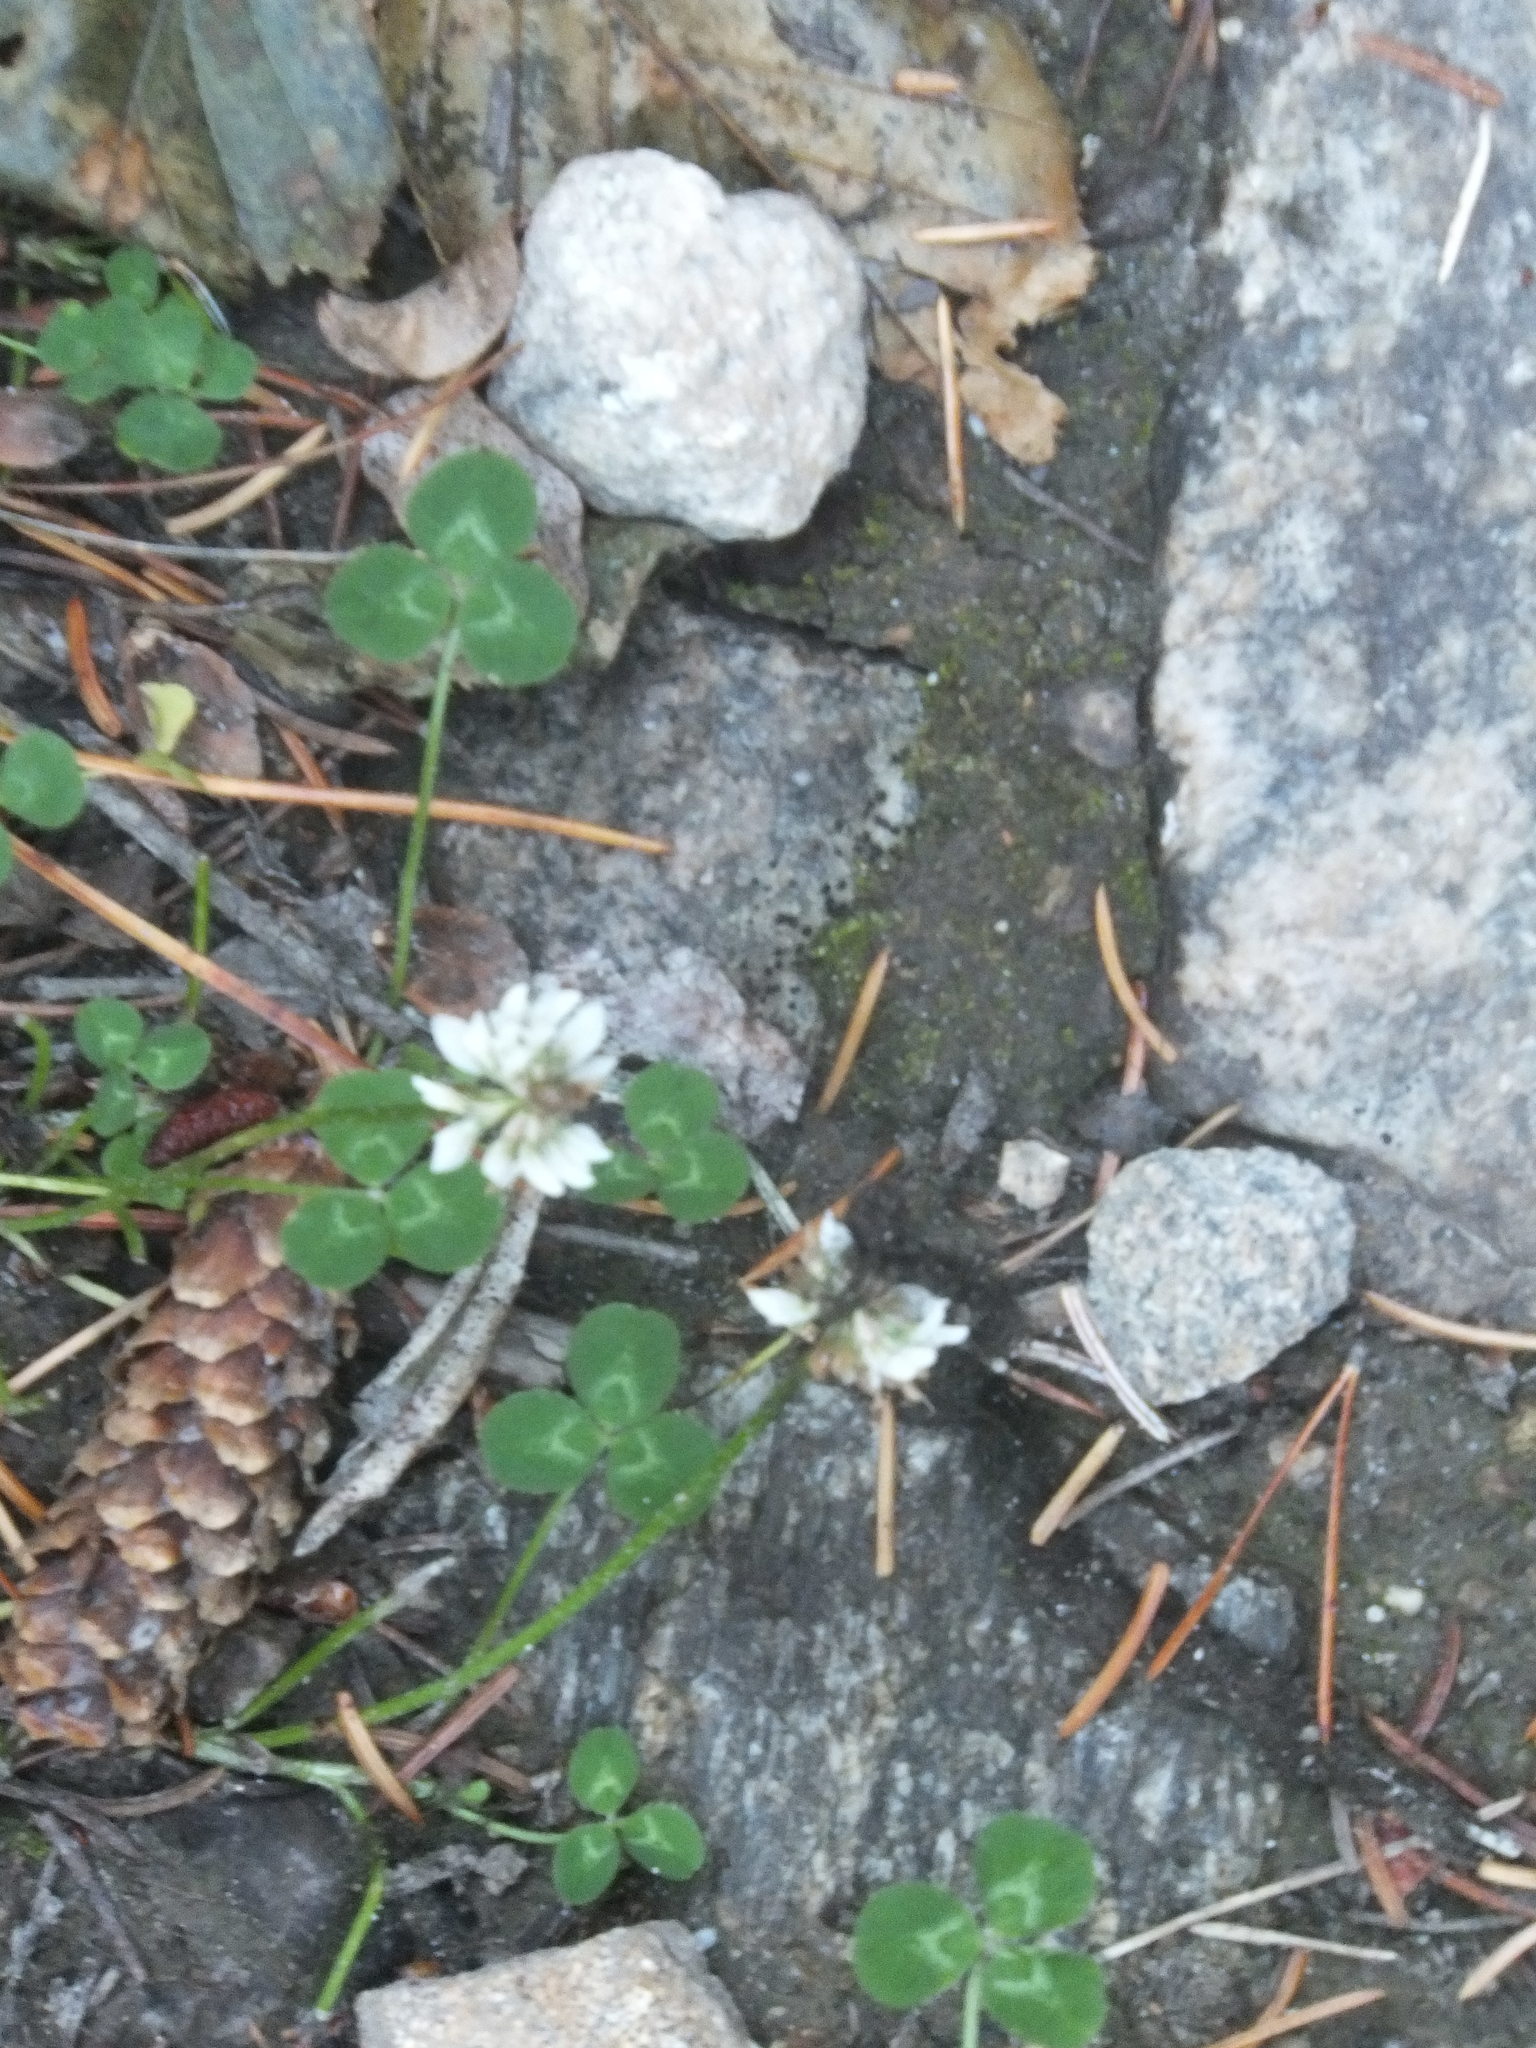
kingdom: Plantae
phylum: Tracheophyta
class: Magnoliopsida
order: Fabales
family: Fabaceae
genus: Trifolium
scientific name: Trifolium repens
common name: White clover
